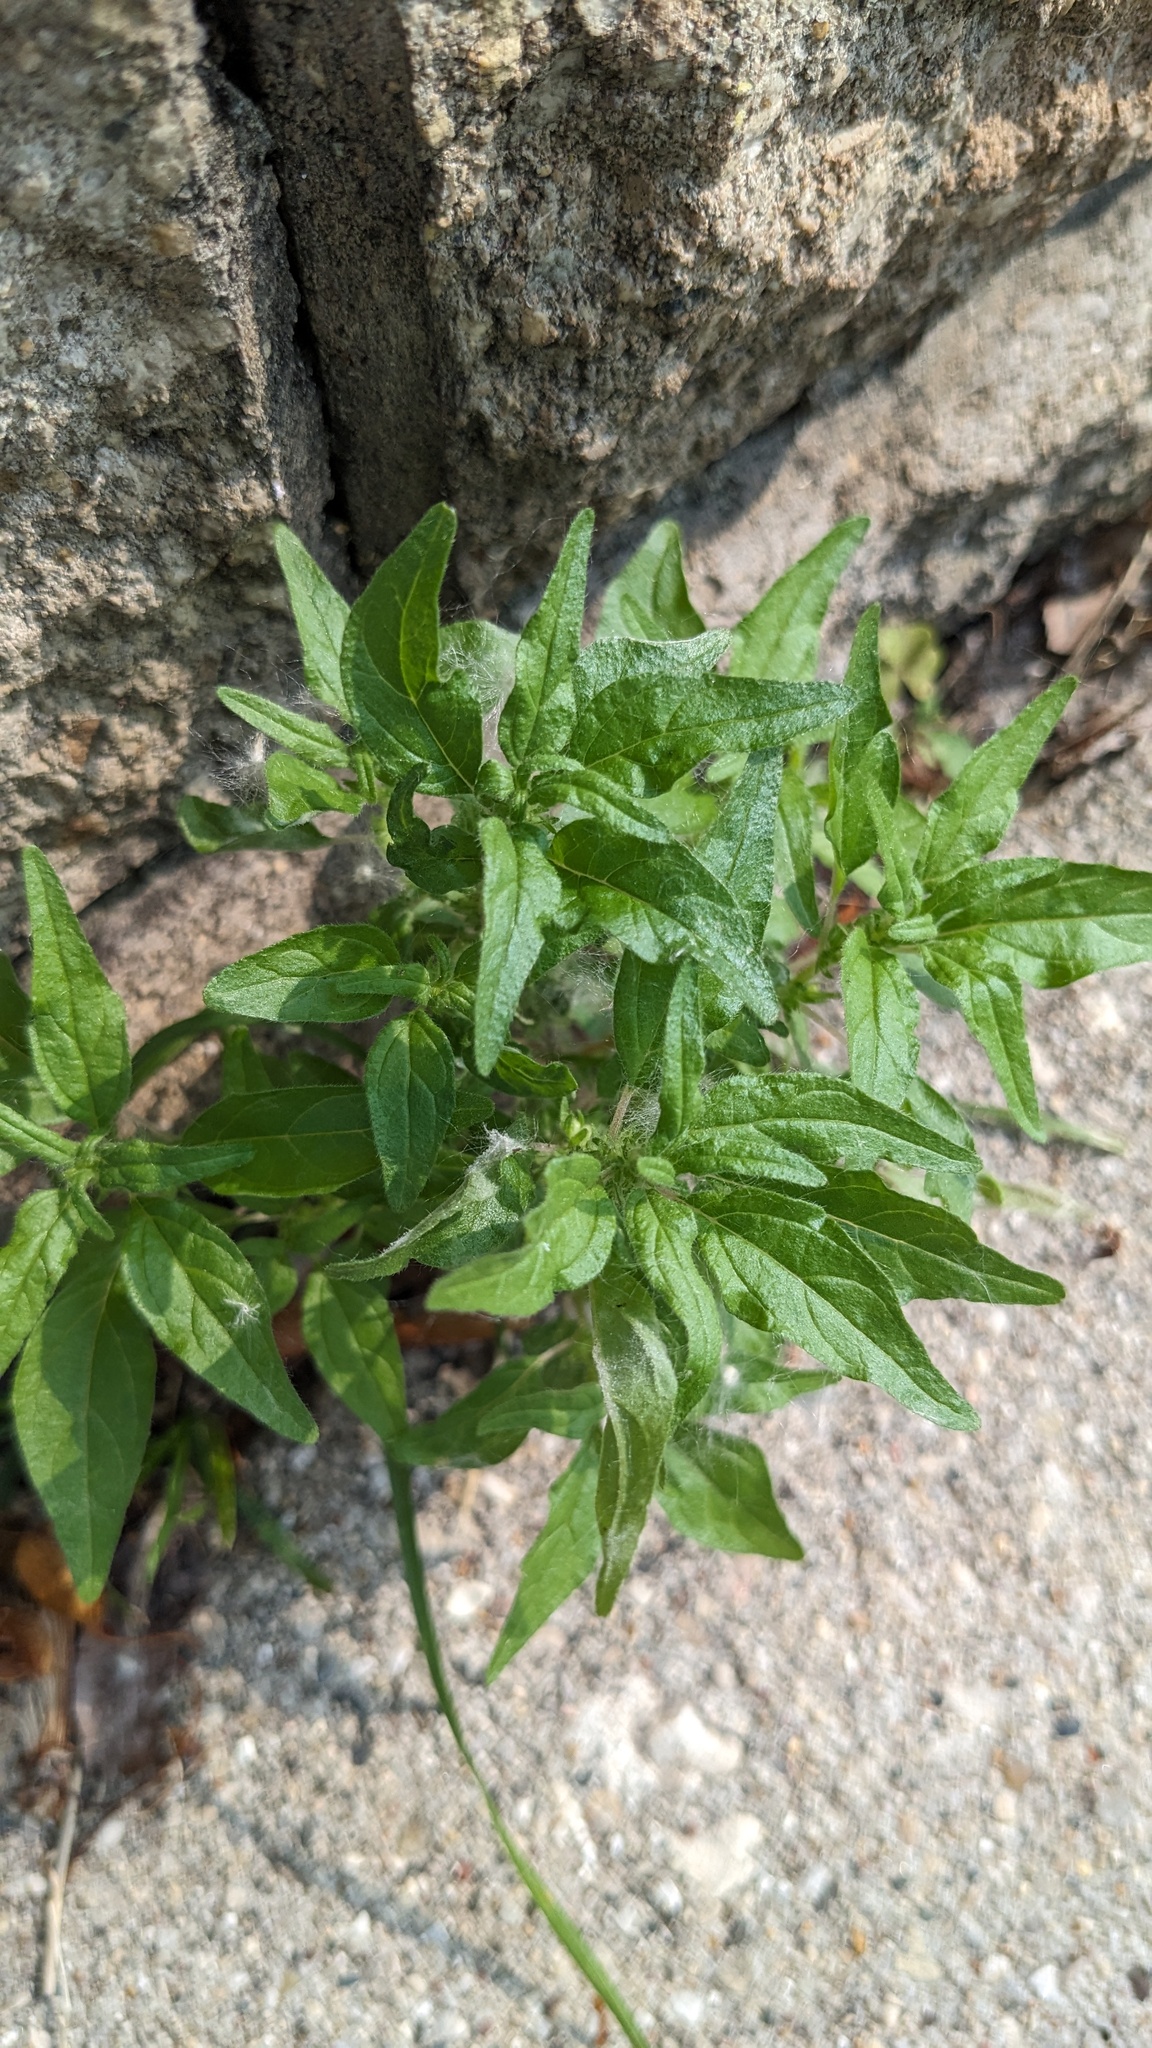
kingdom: Plantae
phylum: Tracheophyta
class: Magnoliopsida
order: Rosales
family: Urticaceae
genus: Parietaria
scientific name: Parietaria pensylvanica
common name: Pennsylvania pellitory
